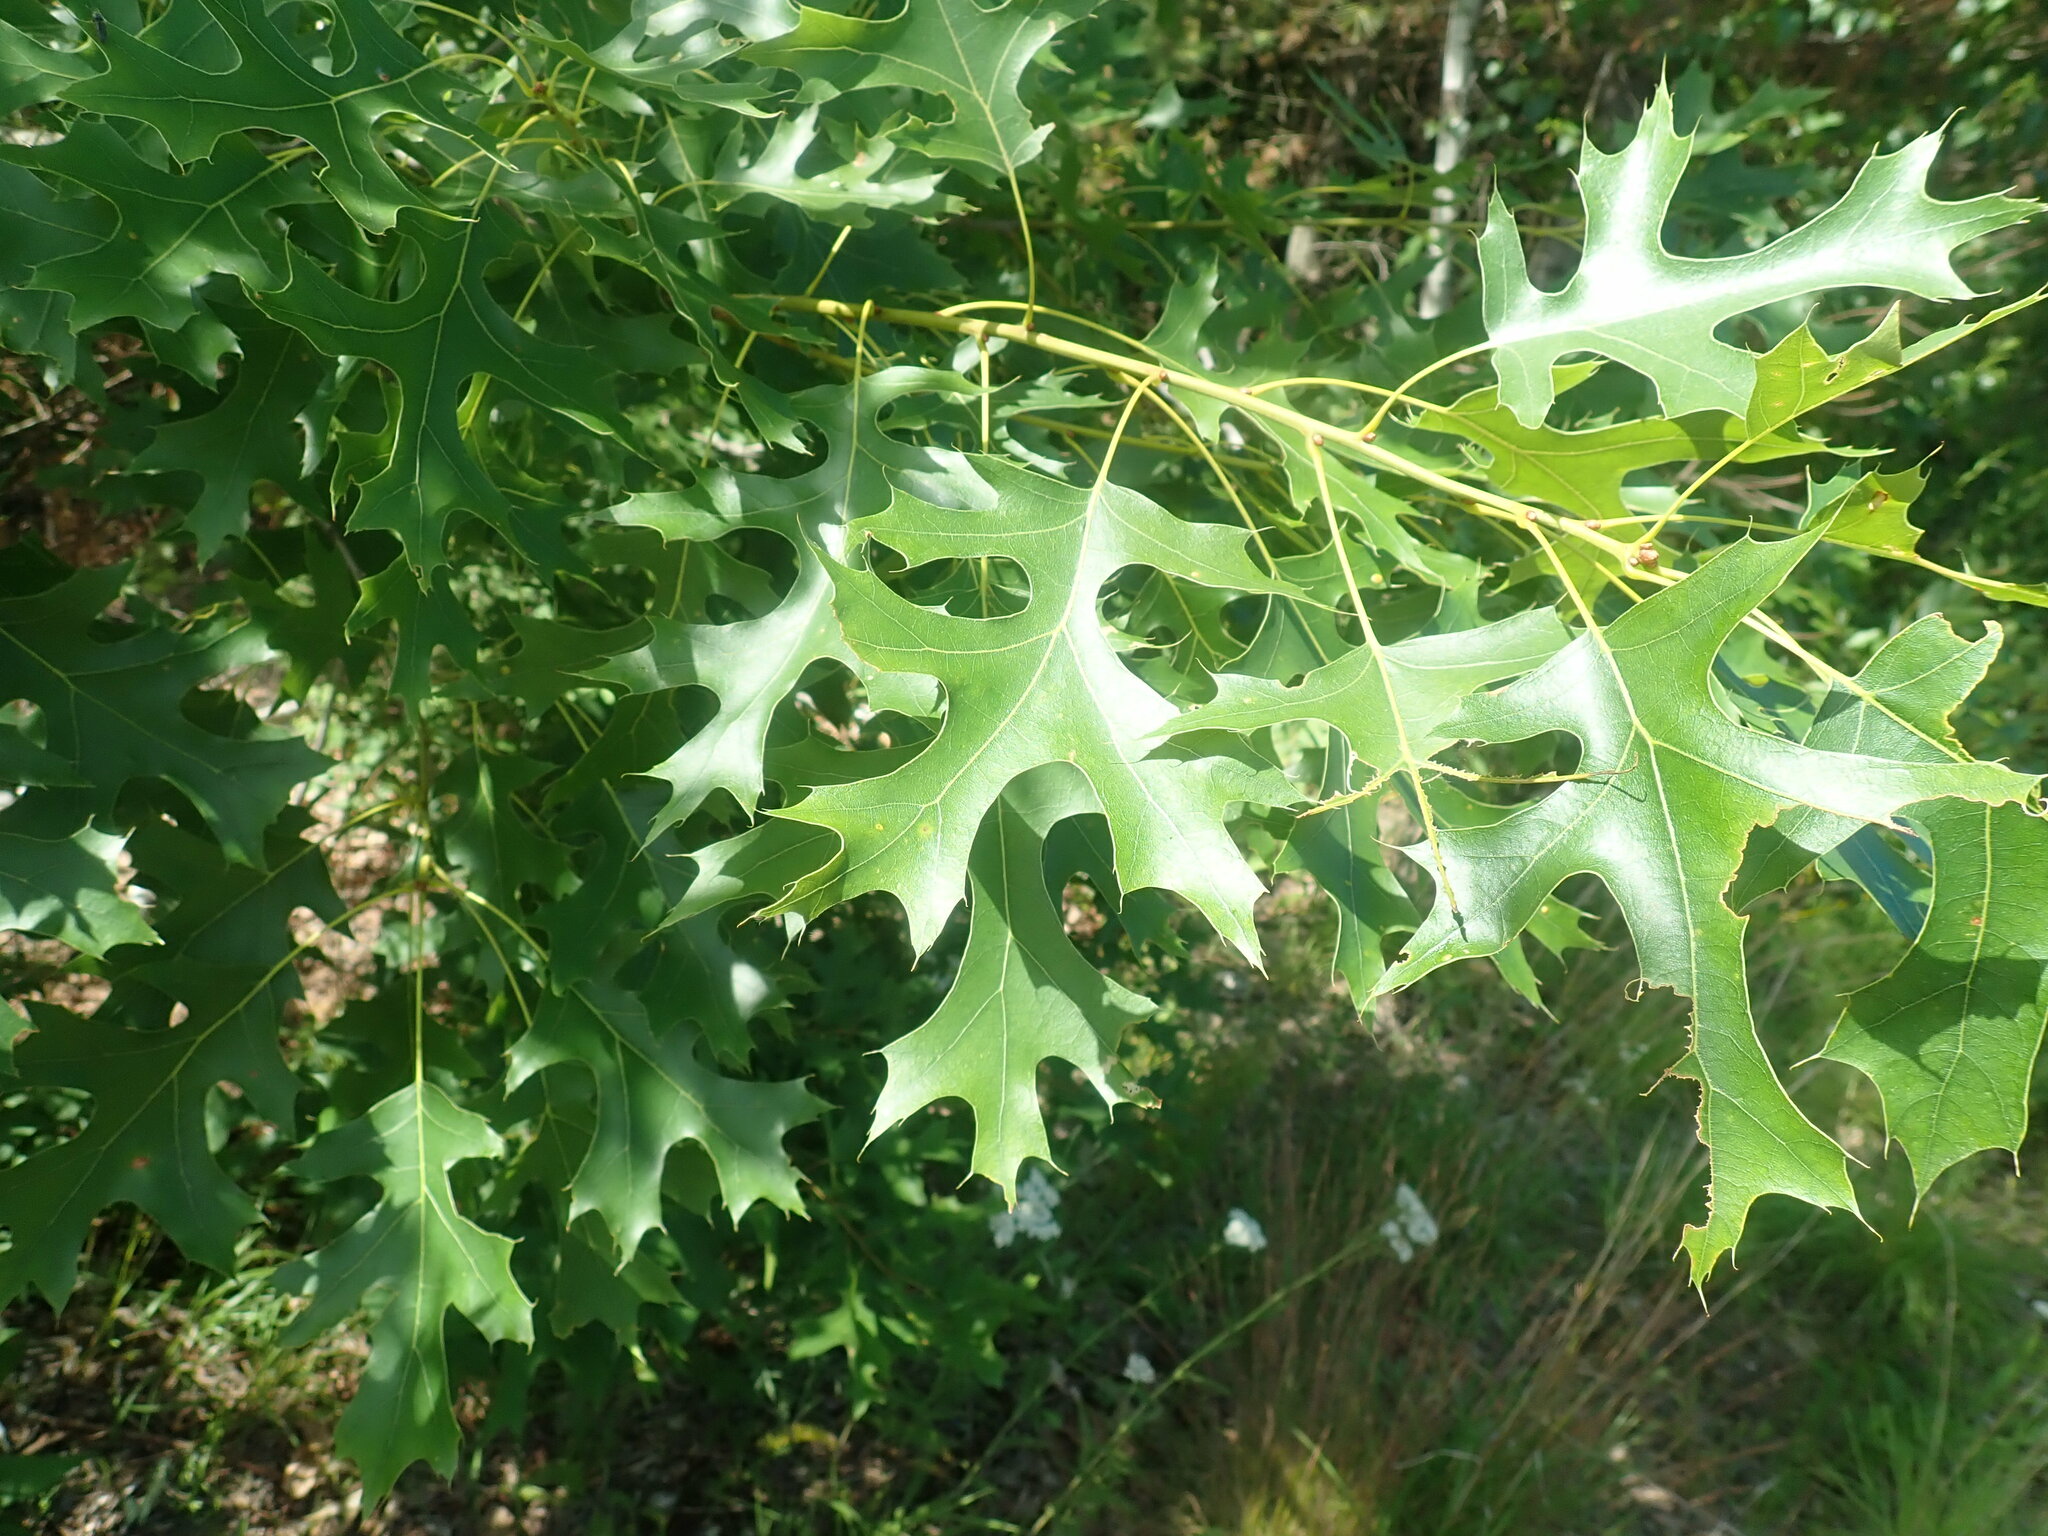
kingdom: Plantae
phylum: Tracheophyta
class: Magnoliopsida
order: Fagales
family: Fagaceae
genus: Quercus
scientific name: Quercus coccinea
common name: Scarlet oak
